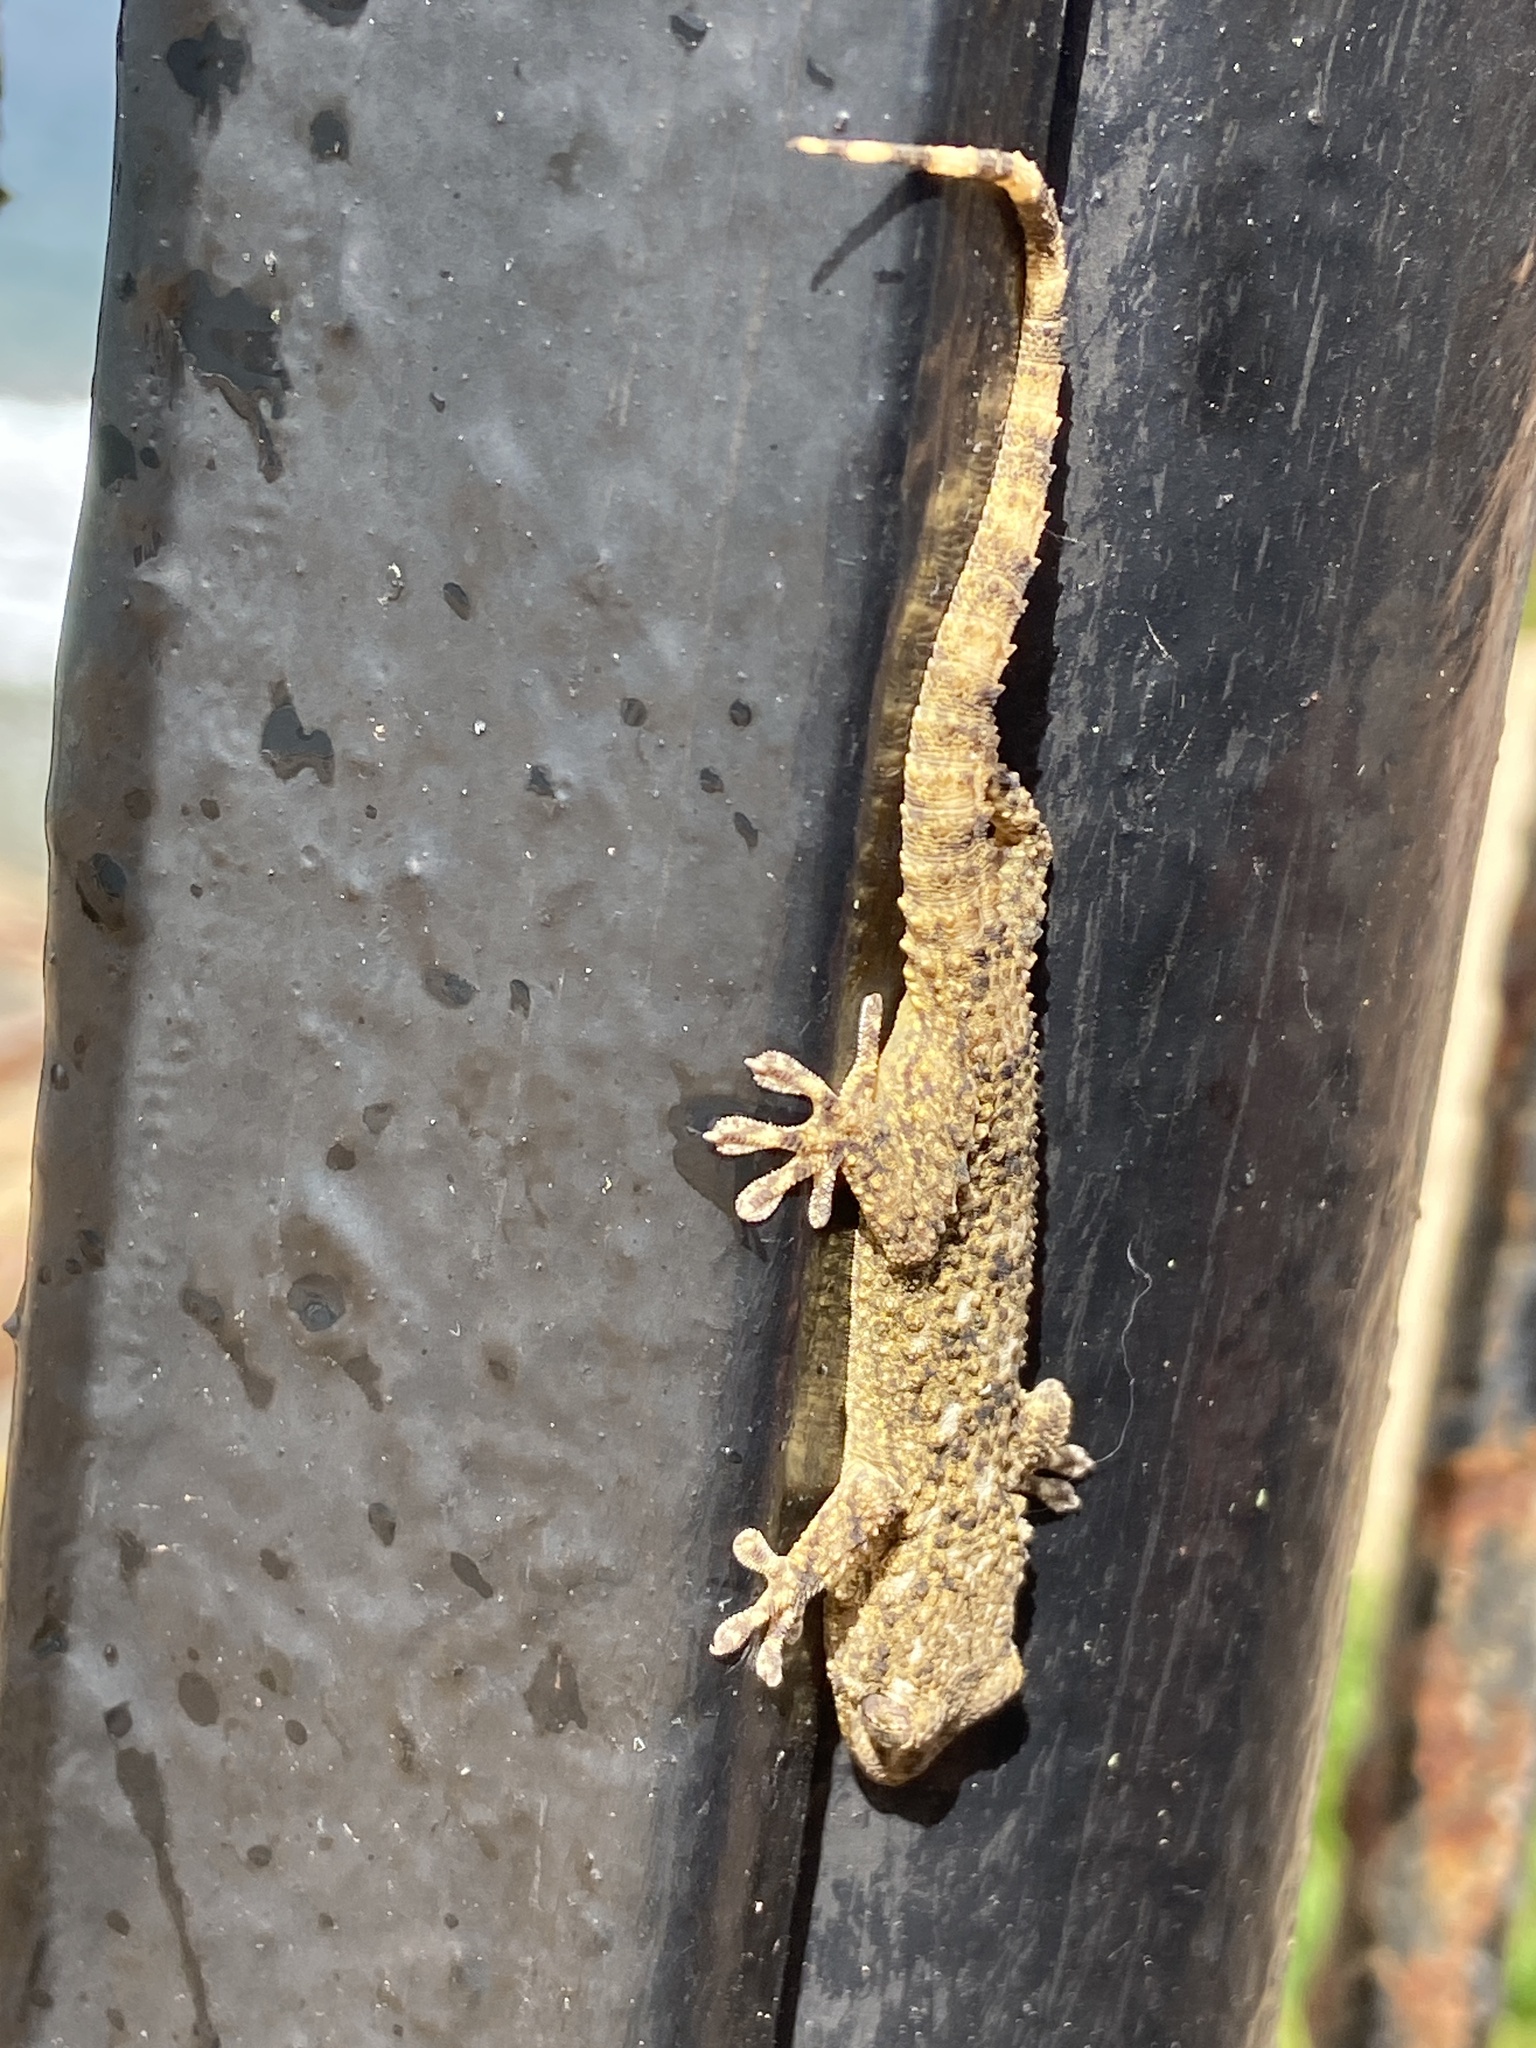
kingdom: Animalia
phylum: Chordata
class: Squamata
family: Phyllodactylidae
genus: Tarentola
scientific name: Tarentola mauritanica
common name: Moorish gecko
